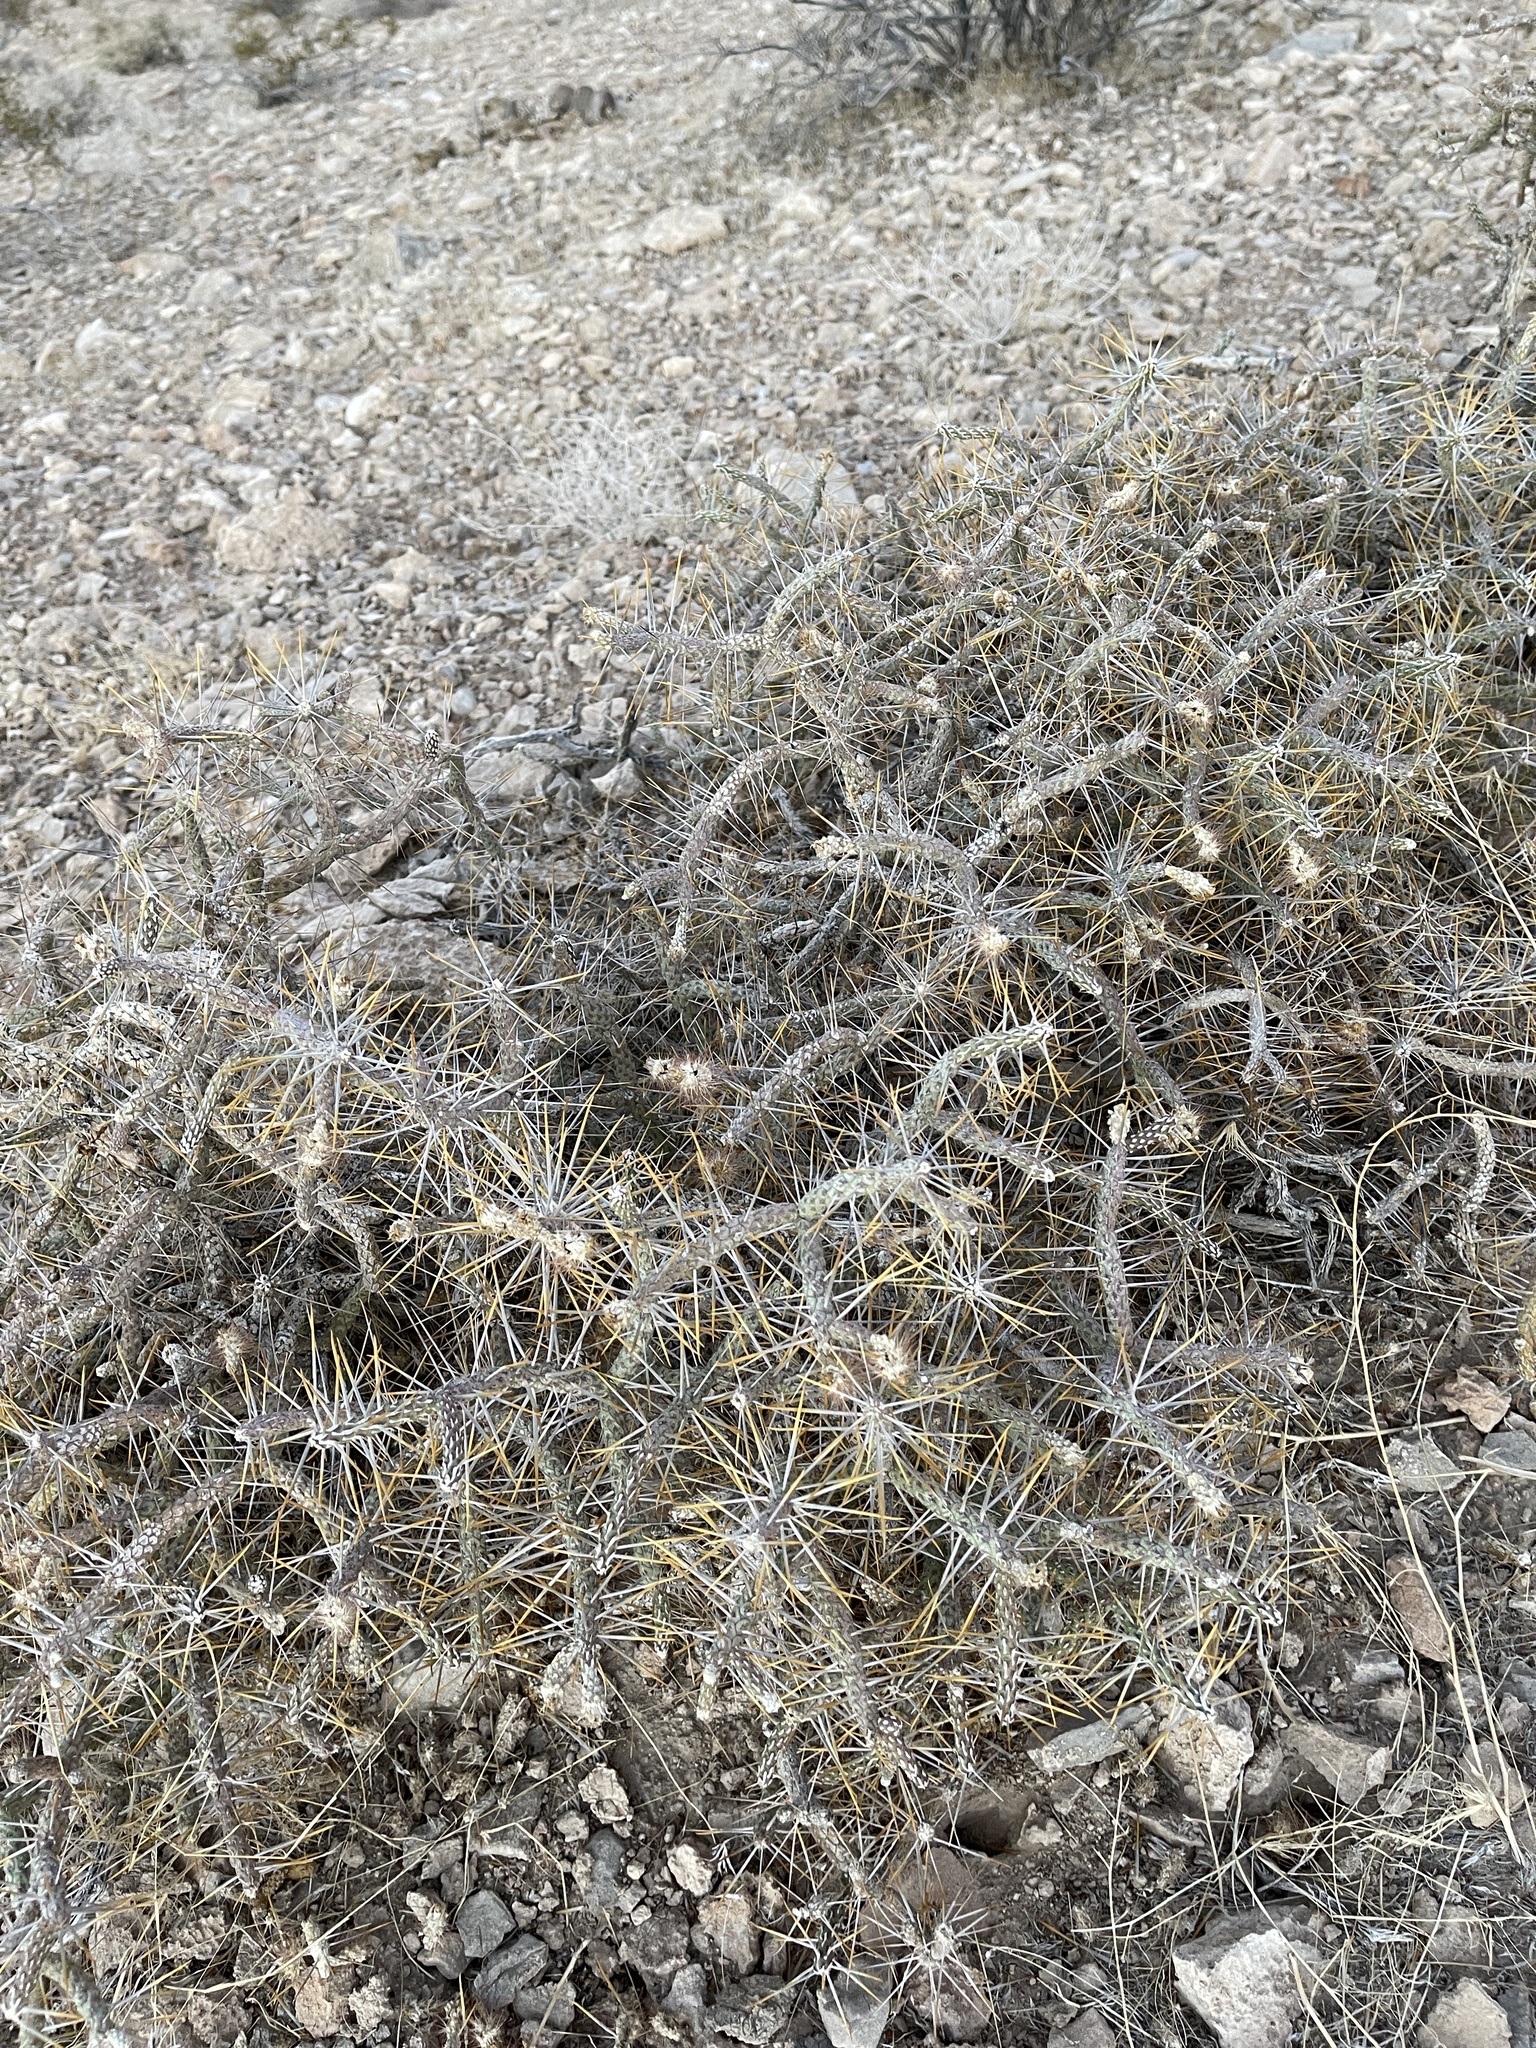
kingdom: Plantae
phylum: Tracheophyta
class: Magnoliopsida
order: Caryophyllales
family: Cactaceae
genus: Cylindropuntia
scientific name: Cylindropuntia ramosissima
